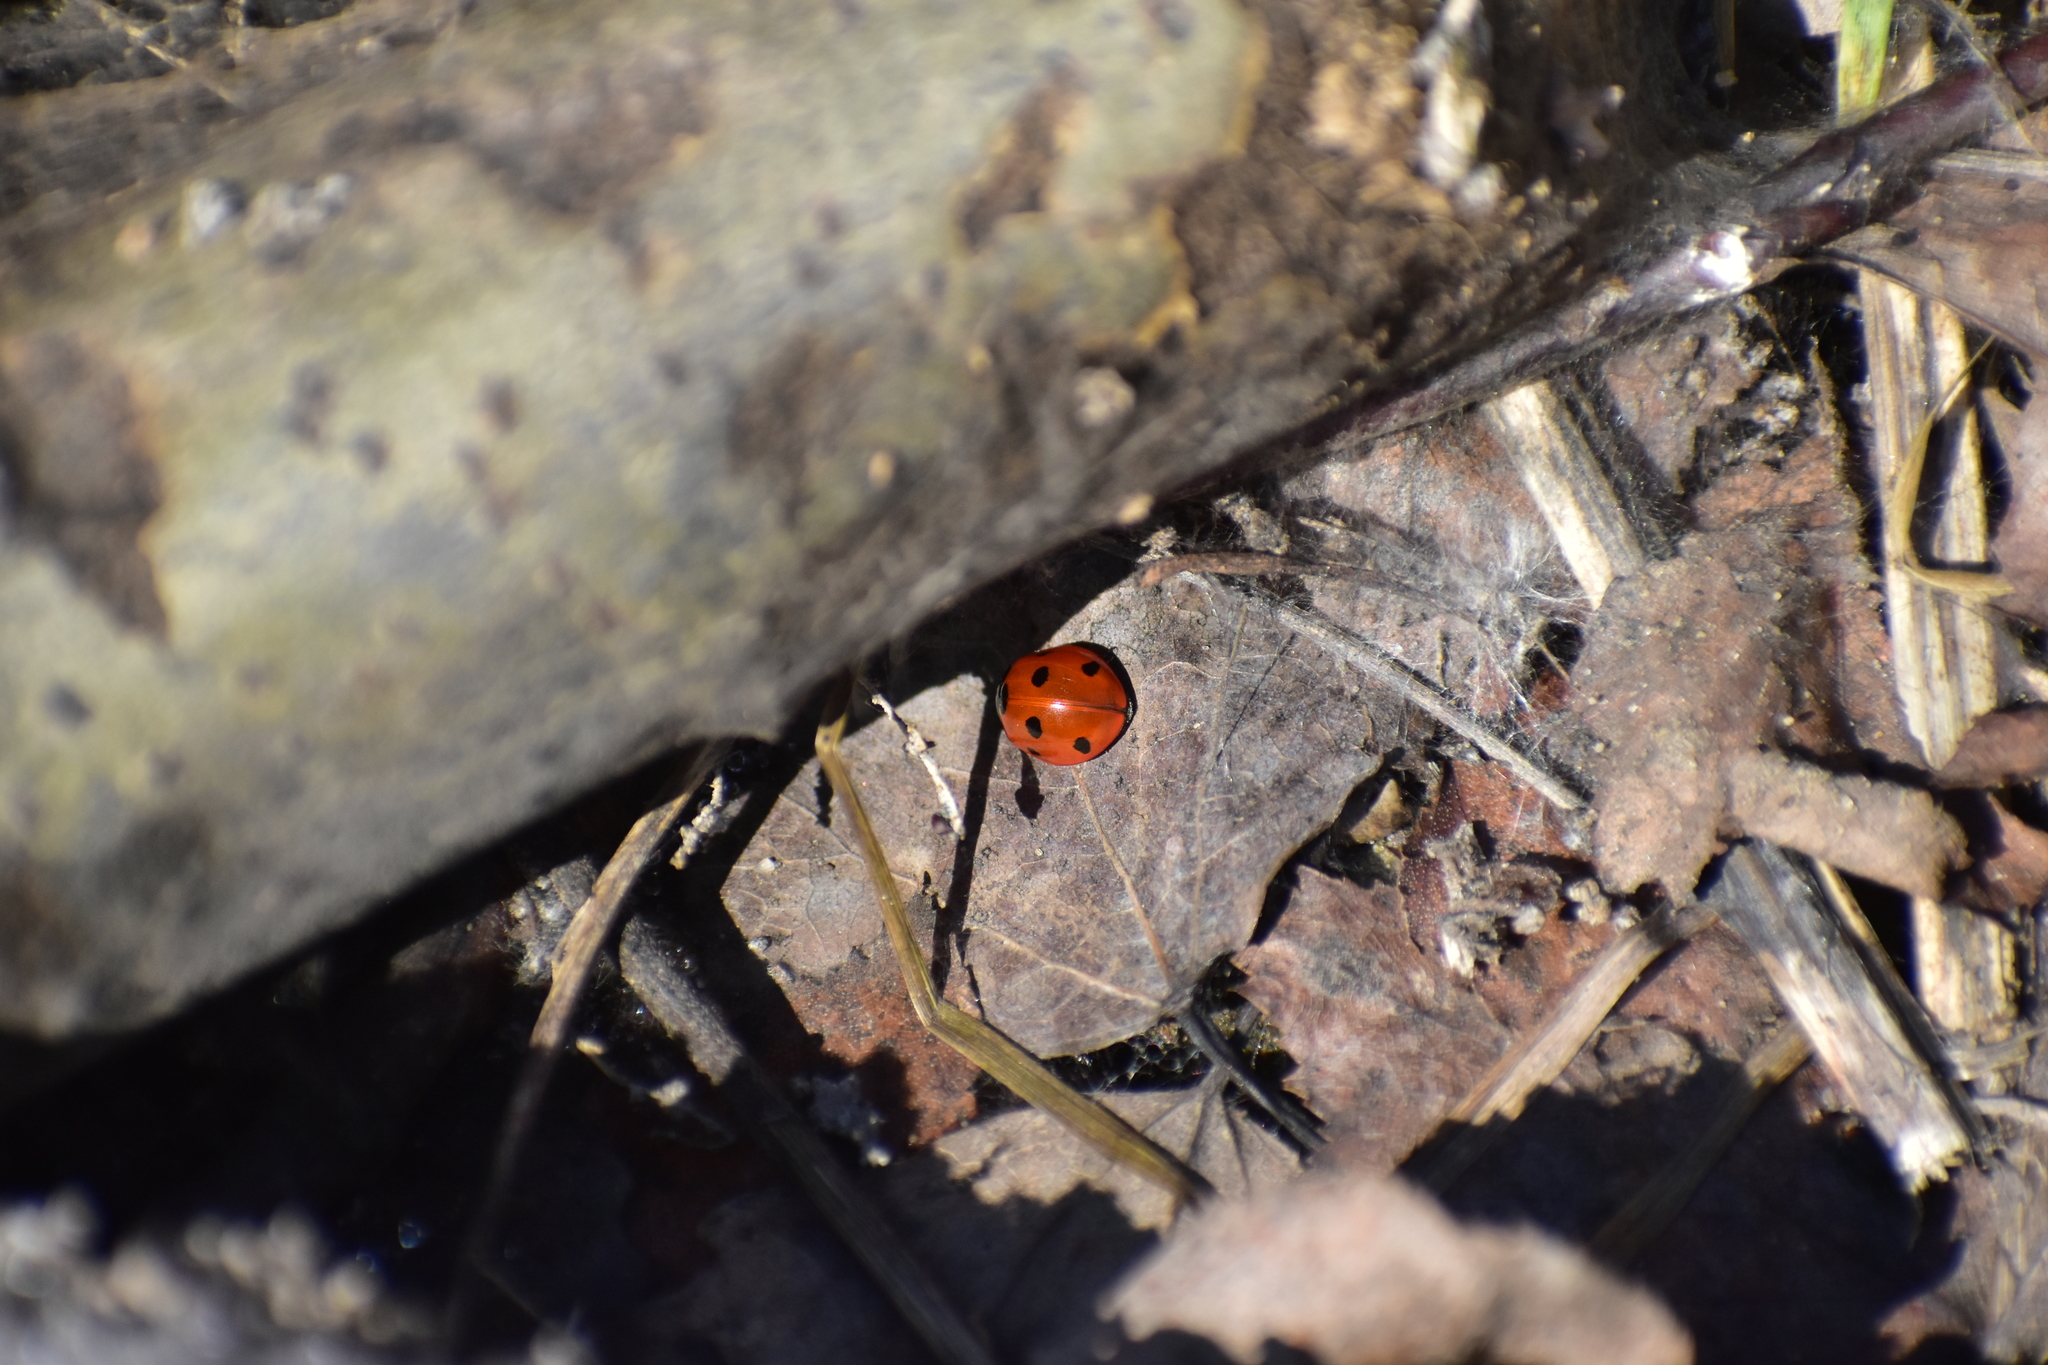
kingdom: Animalia
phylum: Arthropoda
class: Insecta
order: Coleoptera
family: Coccinellidae
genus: Coccinella
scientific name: Coccinella septempunctata
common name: Sevenspotted lady beetle
